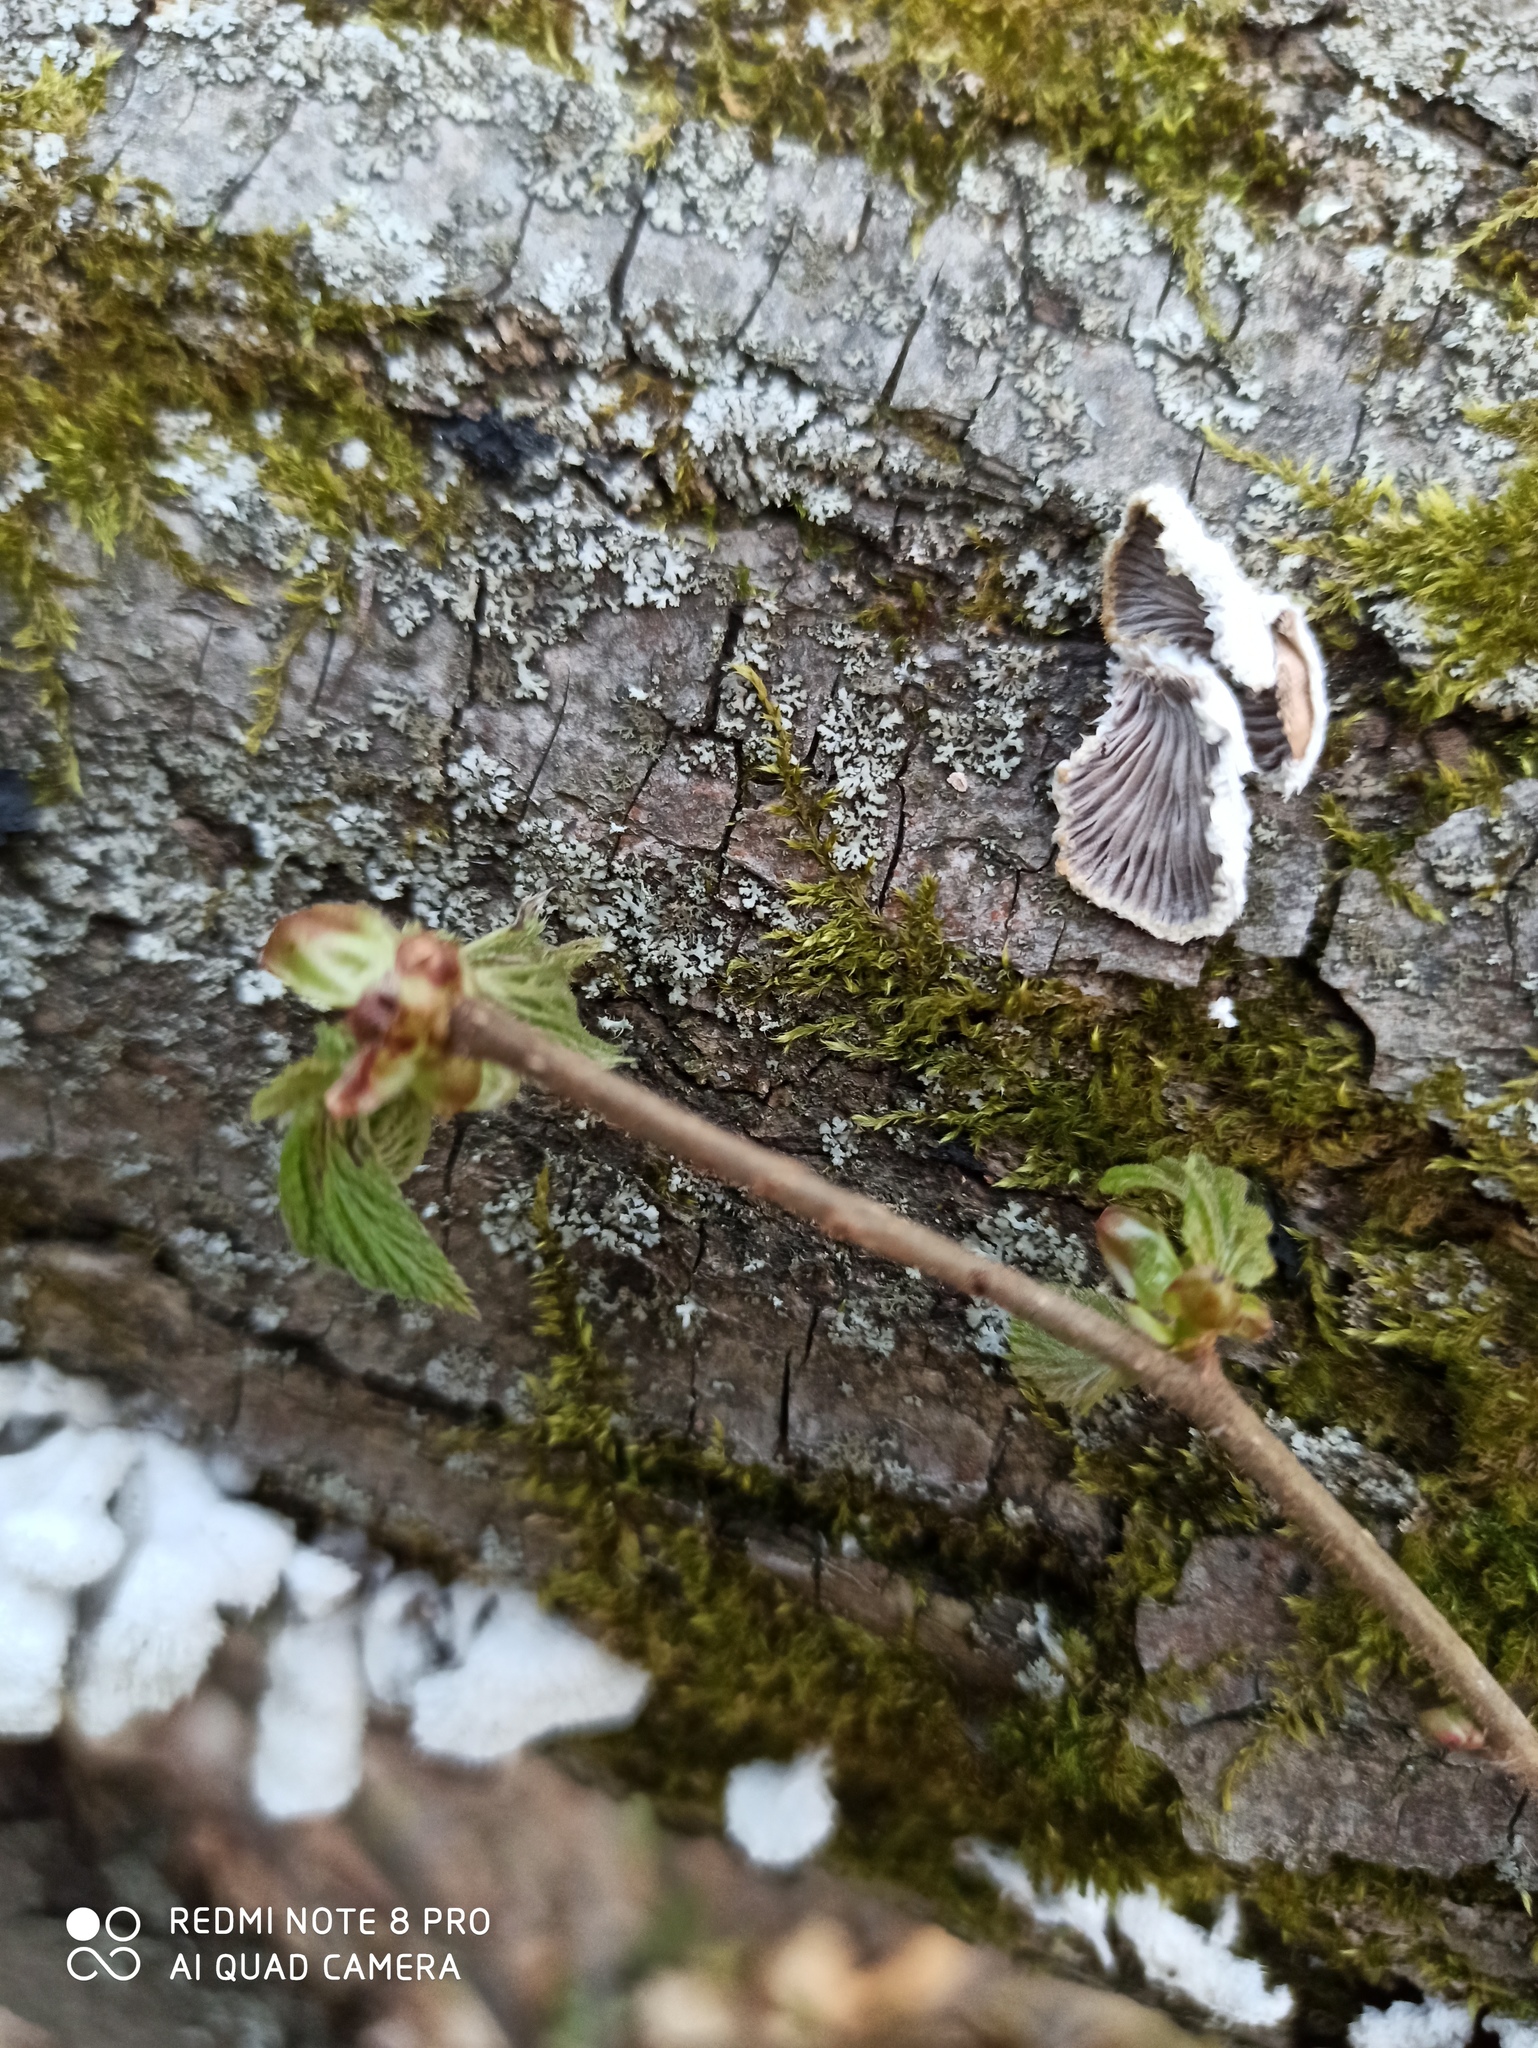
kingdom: Fungi
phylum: Basidiomycota
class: Agaricomycetes
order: Agaricales
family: Schizophyllaceae
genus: Schizophyllum
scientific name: Schizophyllum commune
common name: Common porecrust
